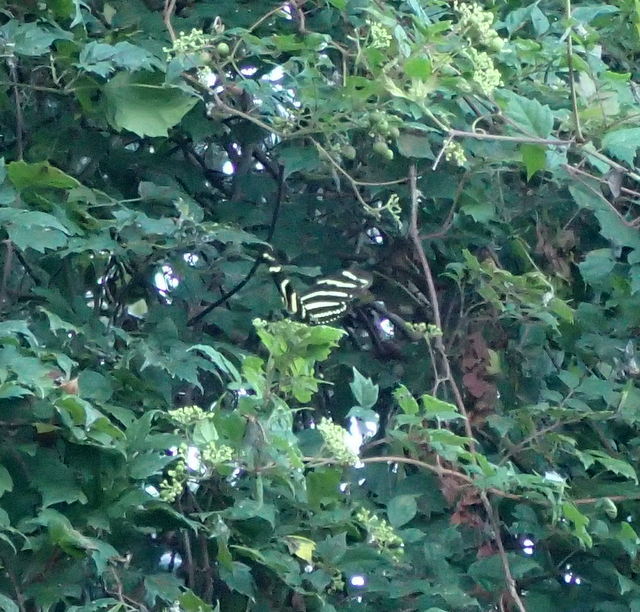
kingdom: Animalia
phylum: Arthropoda
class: Insecta
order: Lepidoptera
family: Nymphalidae
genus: Heliconius
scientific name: Heliconius charithonia
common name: Zebra long wing
